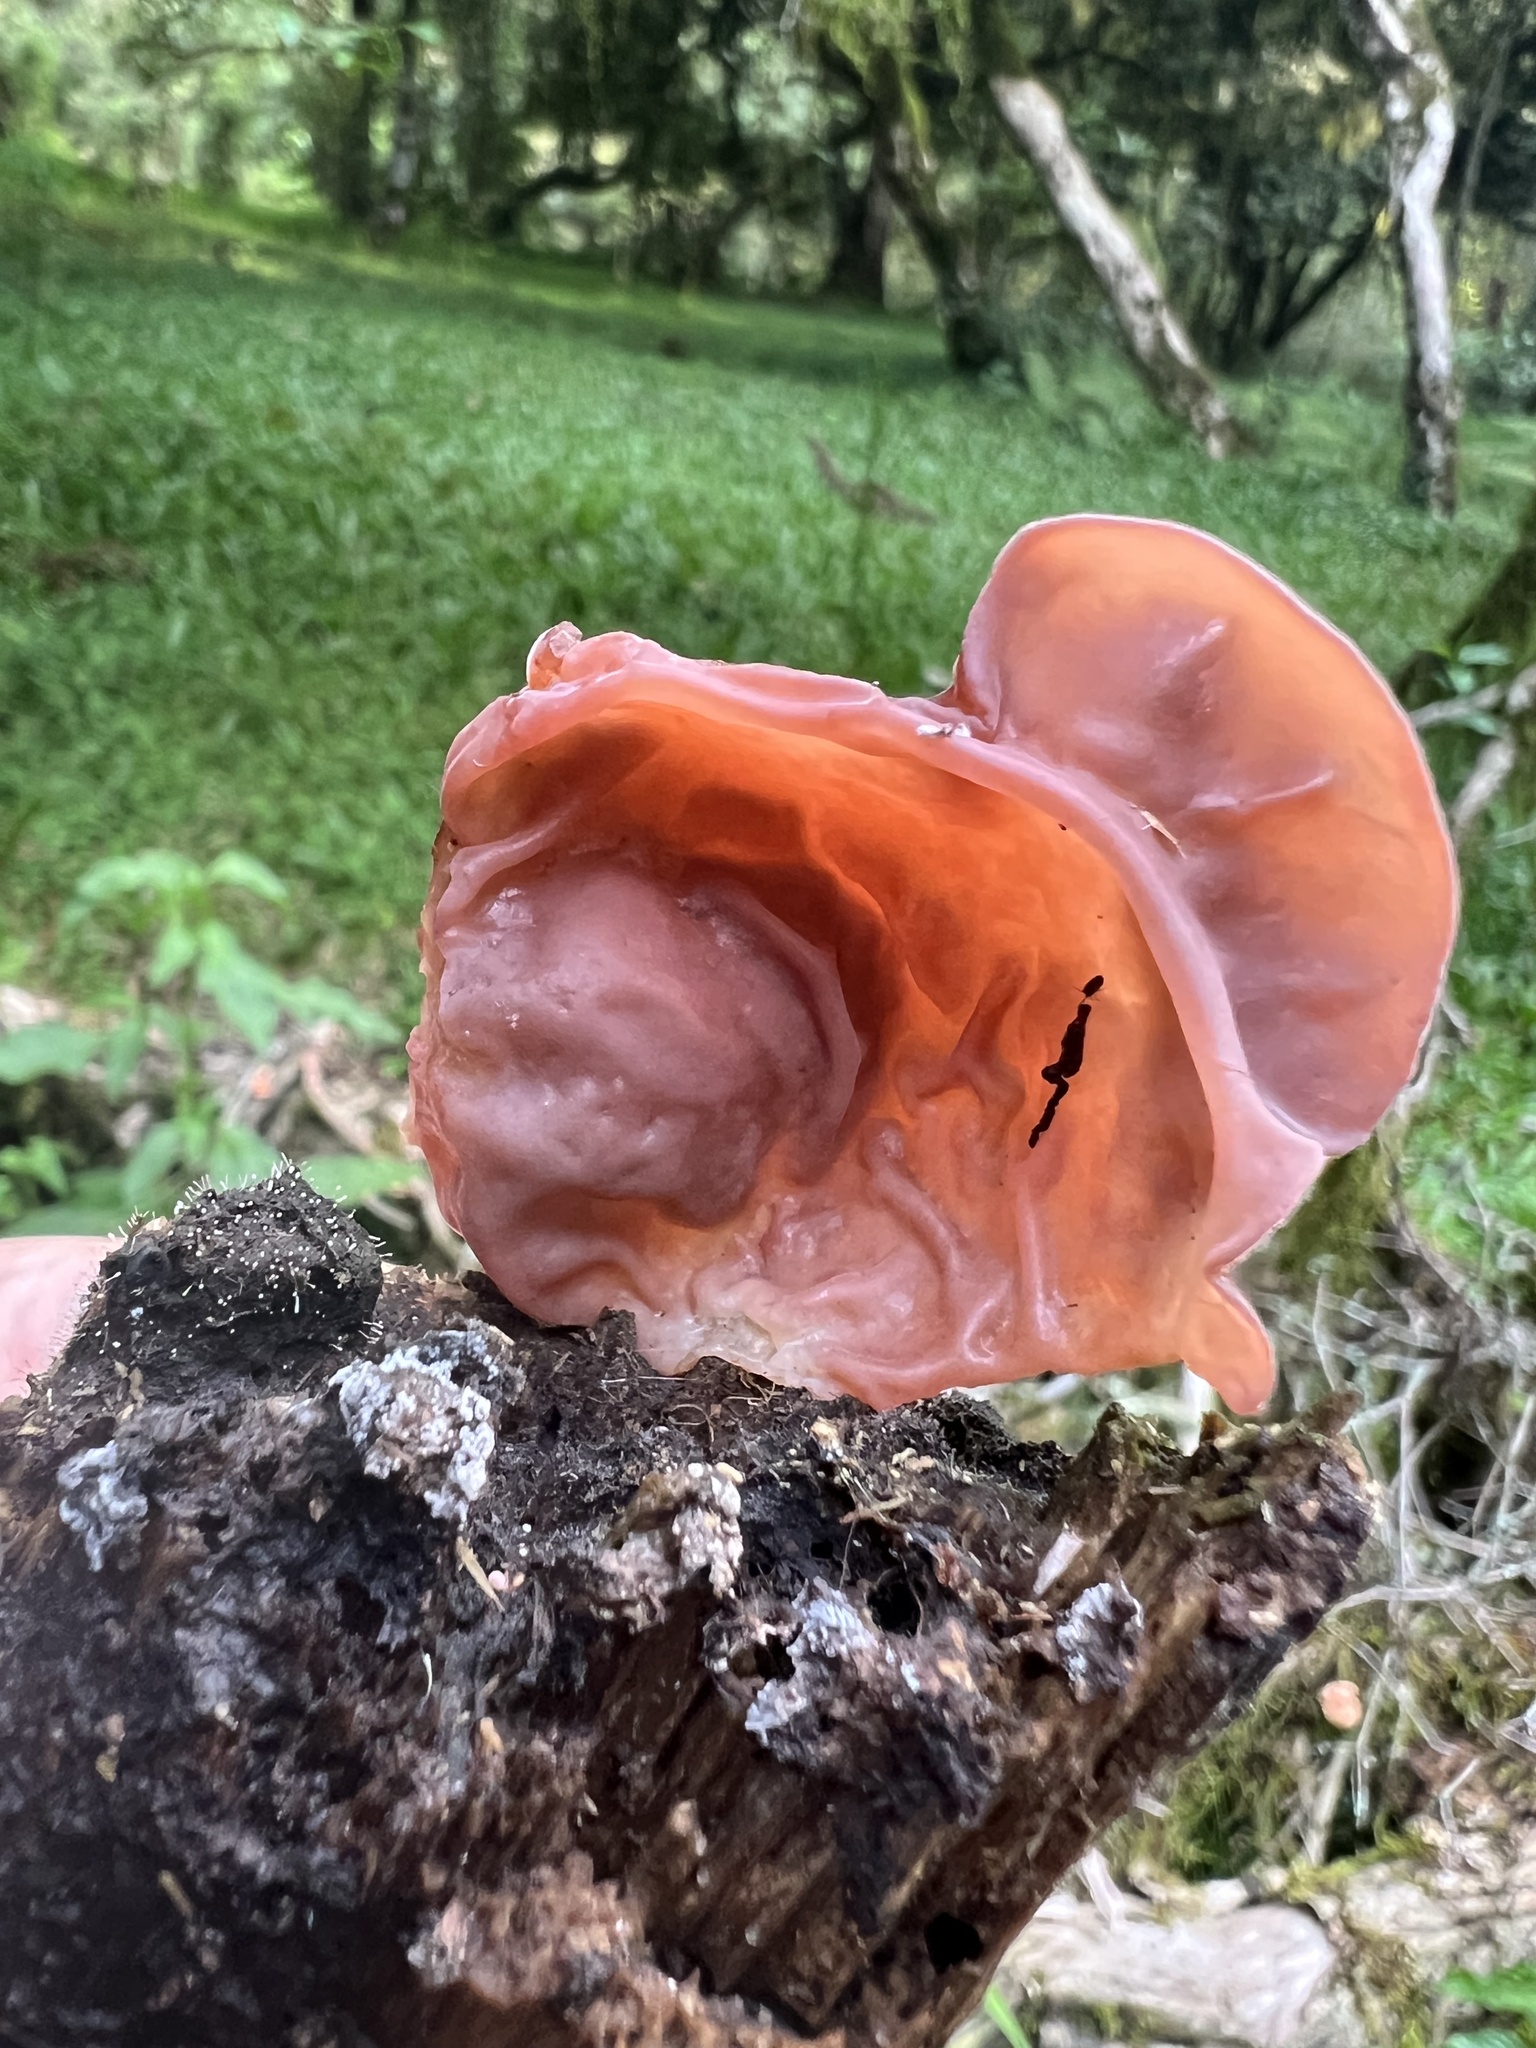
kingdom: Fungi
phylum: Basidiomycota
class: Agaricomycetes
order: Auriculariales
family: Auriculariaceae
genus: Auricularia
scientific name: Auricularia fuscosuccinea
